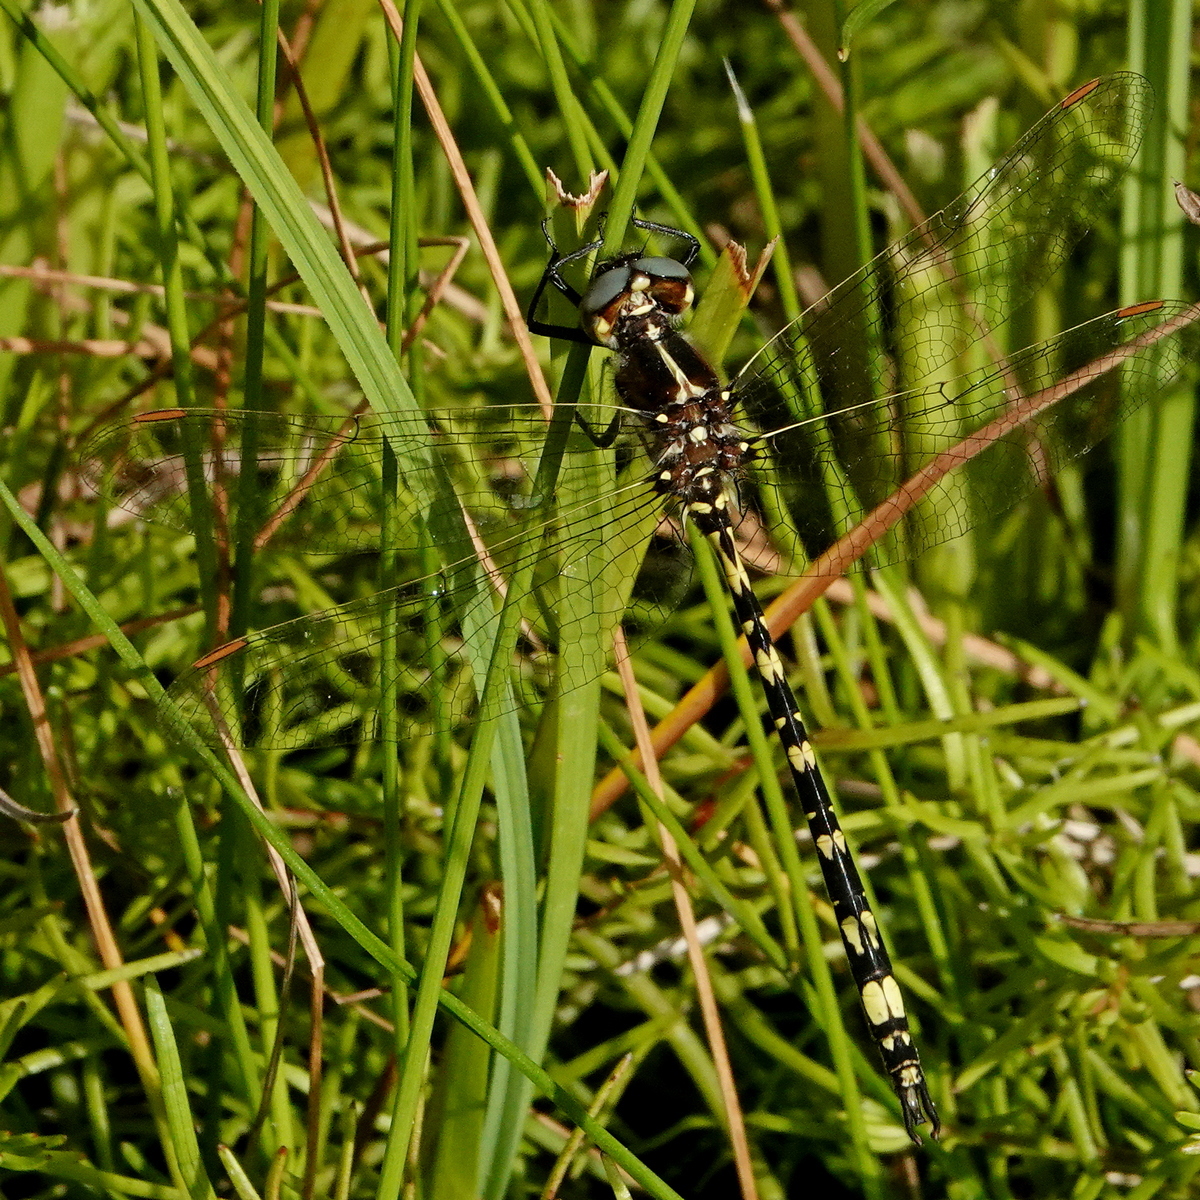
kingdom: Animalia
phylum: Arthropoda
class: Insecta
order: Odonata
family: Synthemistidae
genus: Synthemis
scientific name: Synthemis eustalacta
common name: Swamp tigertail
